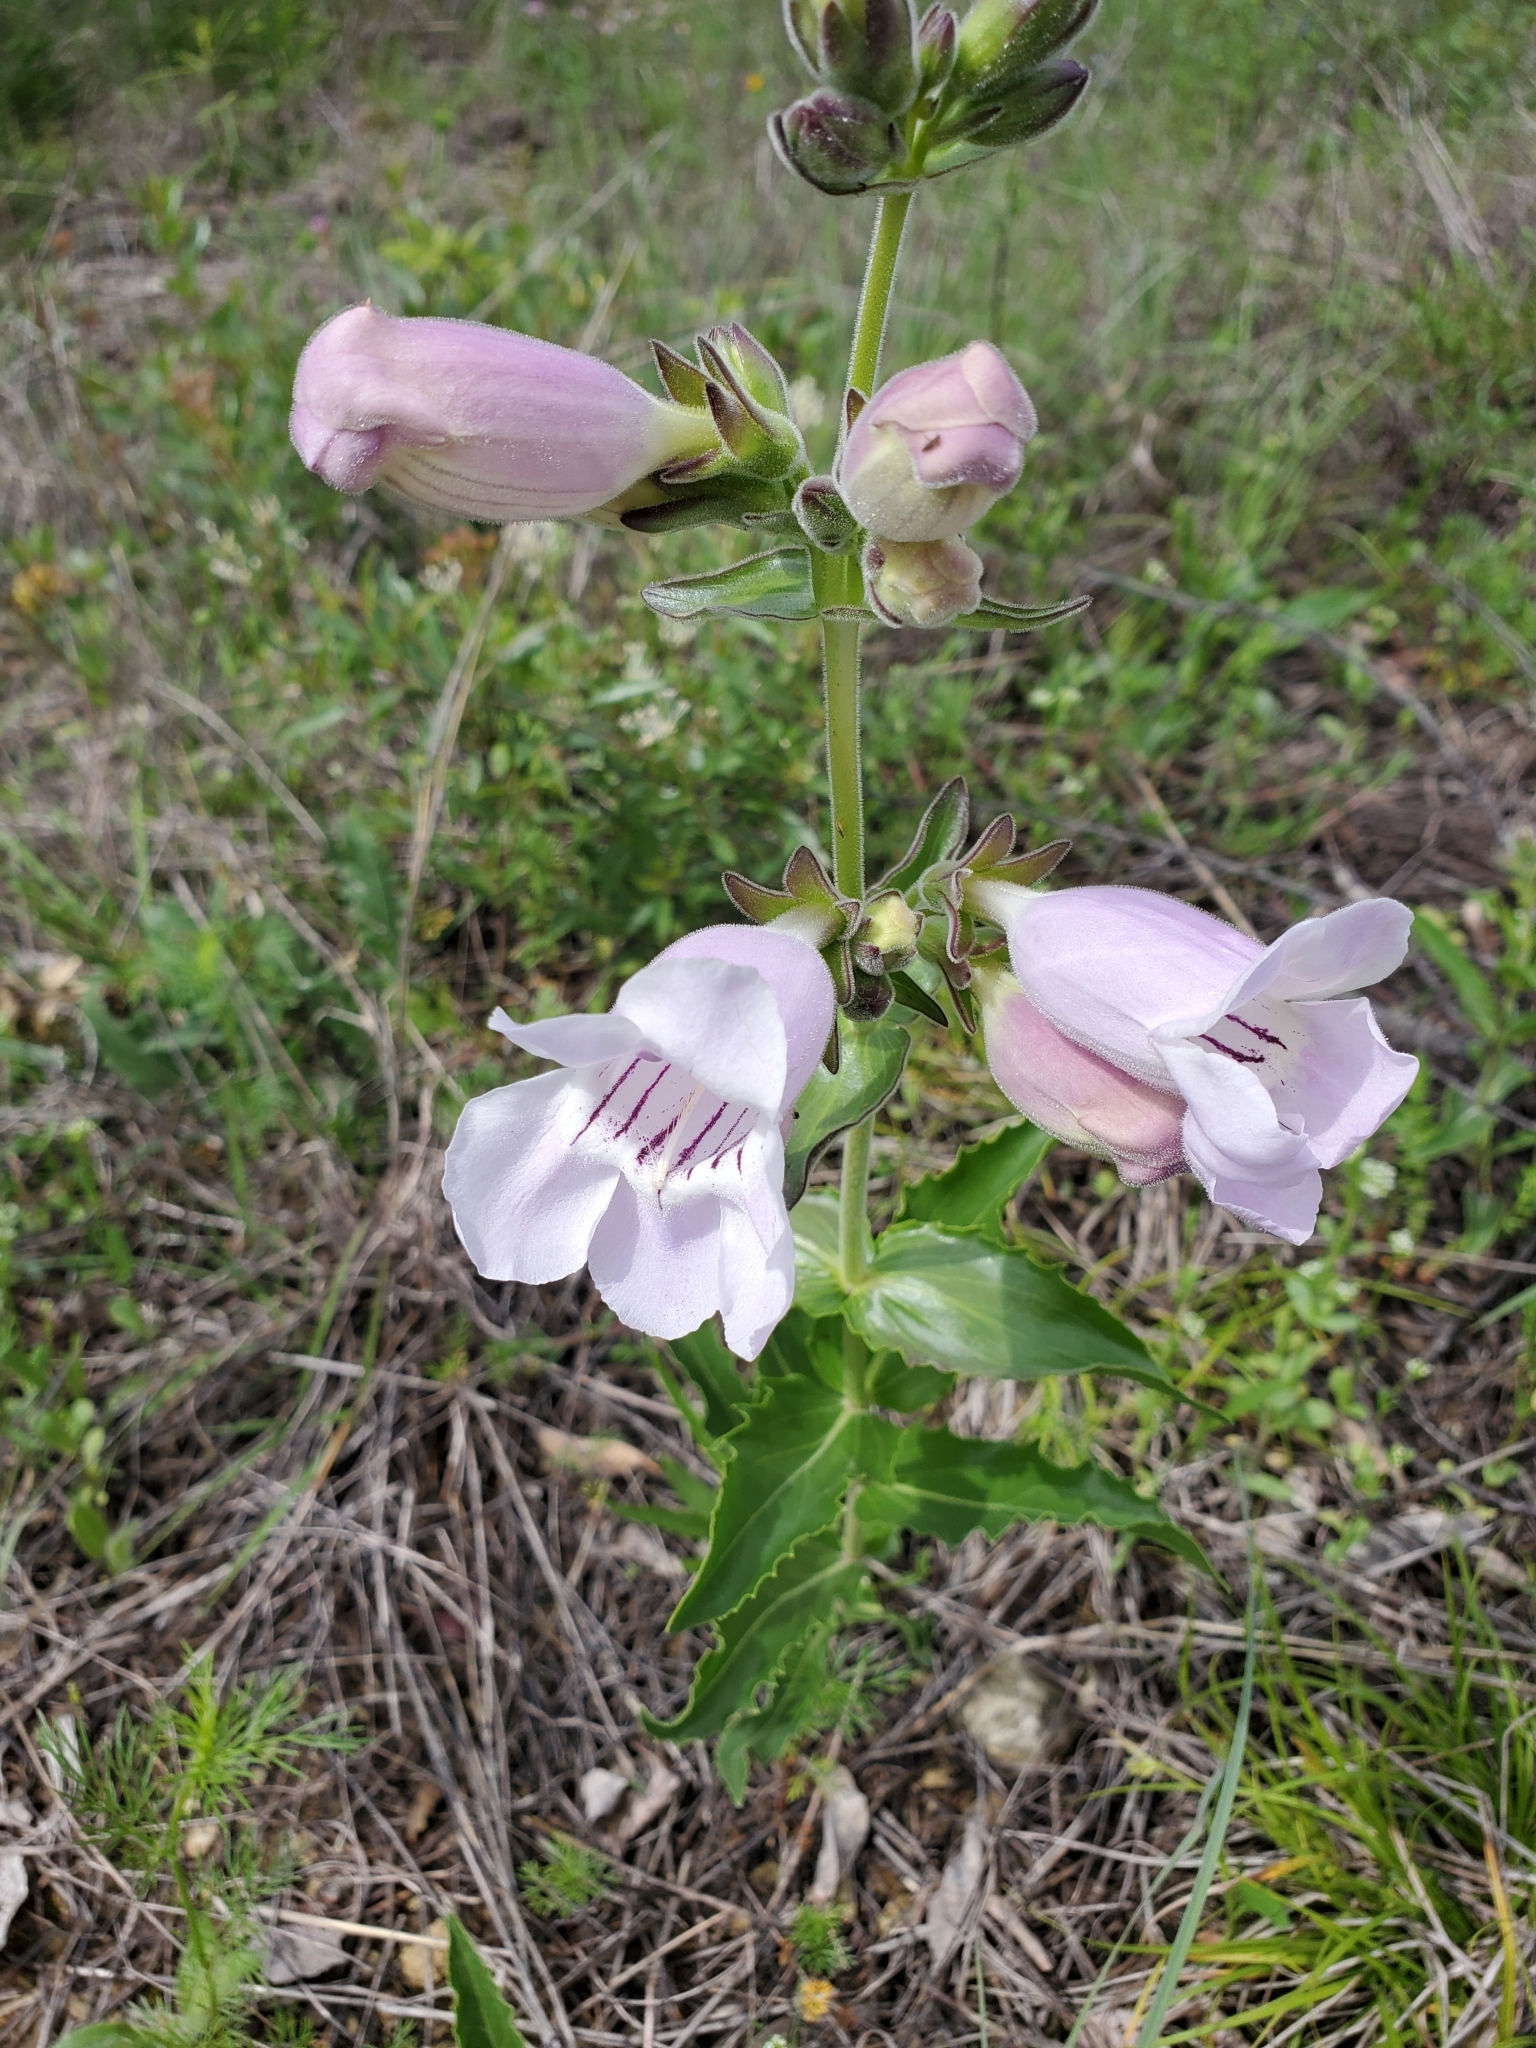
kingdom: Plantae
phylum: Tracheophyta
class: Magnoliopsida
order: Lamiales
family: Plantaginaceae
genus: Penstemon
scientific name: Penstemon cobaea
